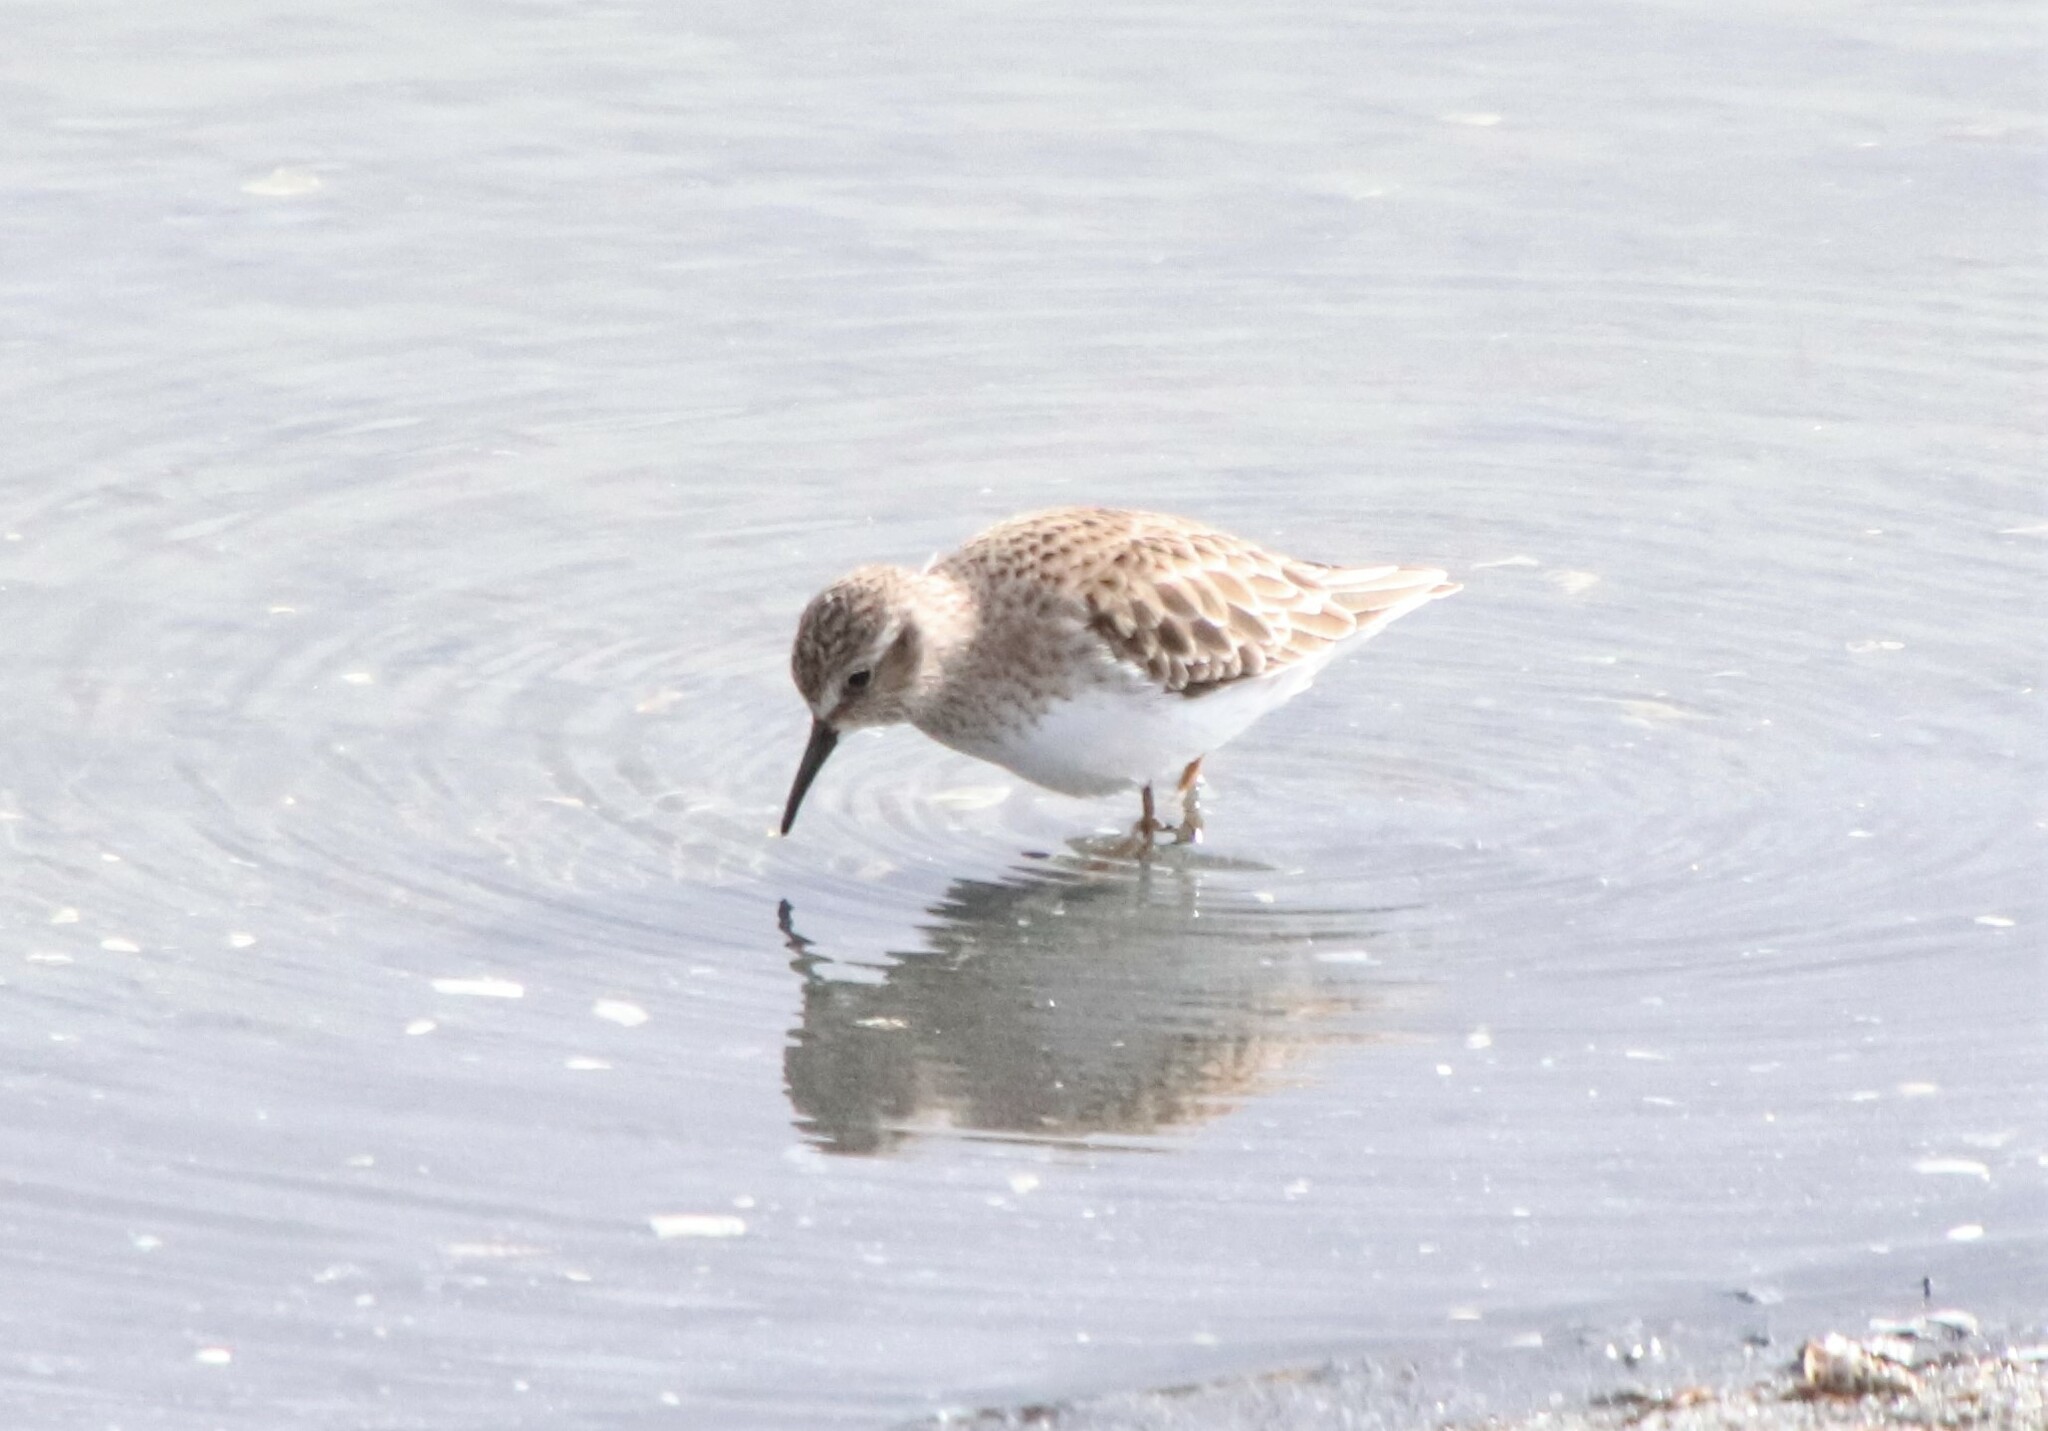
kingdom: Animalia
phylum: Chordata
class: Aves
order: Charadriiformes
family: Scolopacidae
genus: Calidris
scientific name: Calidris minutilla
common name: Least sandpiper
